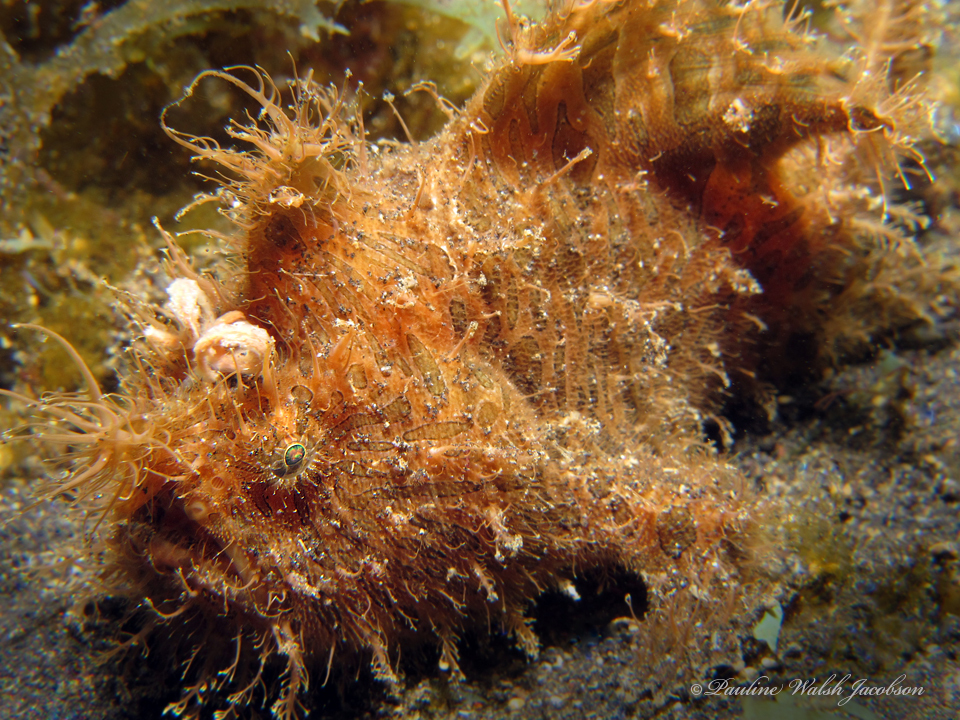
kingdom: Animalia
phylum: Chordata
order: Lophiiformes
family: Antennariidae
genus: Antennarius
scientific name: Antennarius striatus
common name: Striated frogfish
